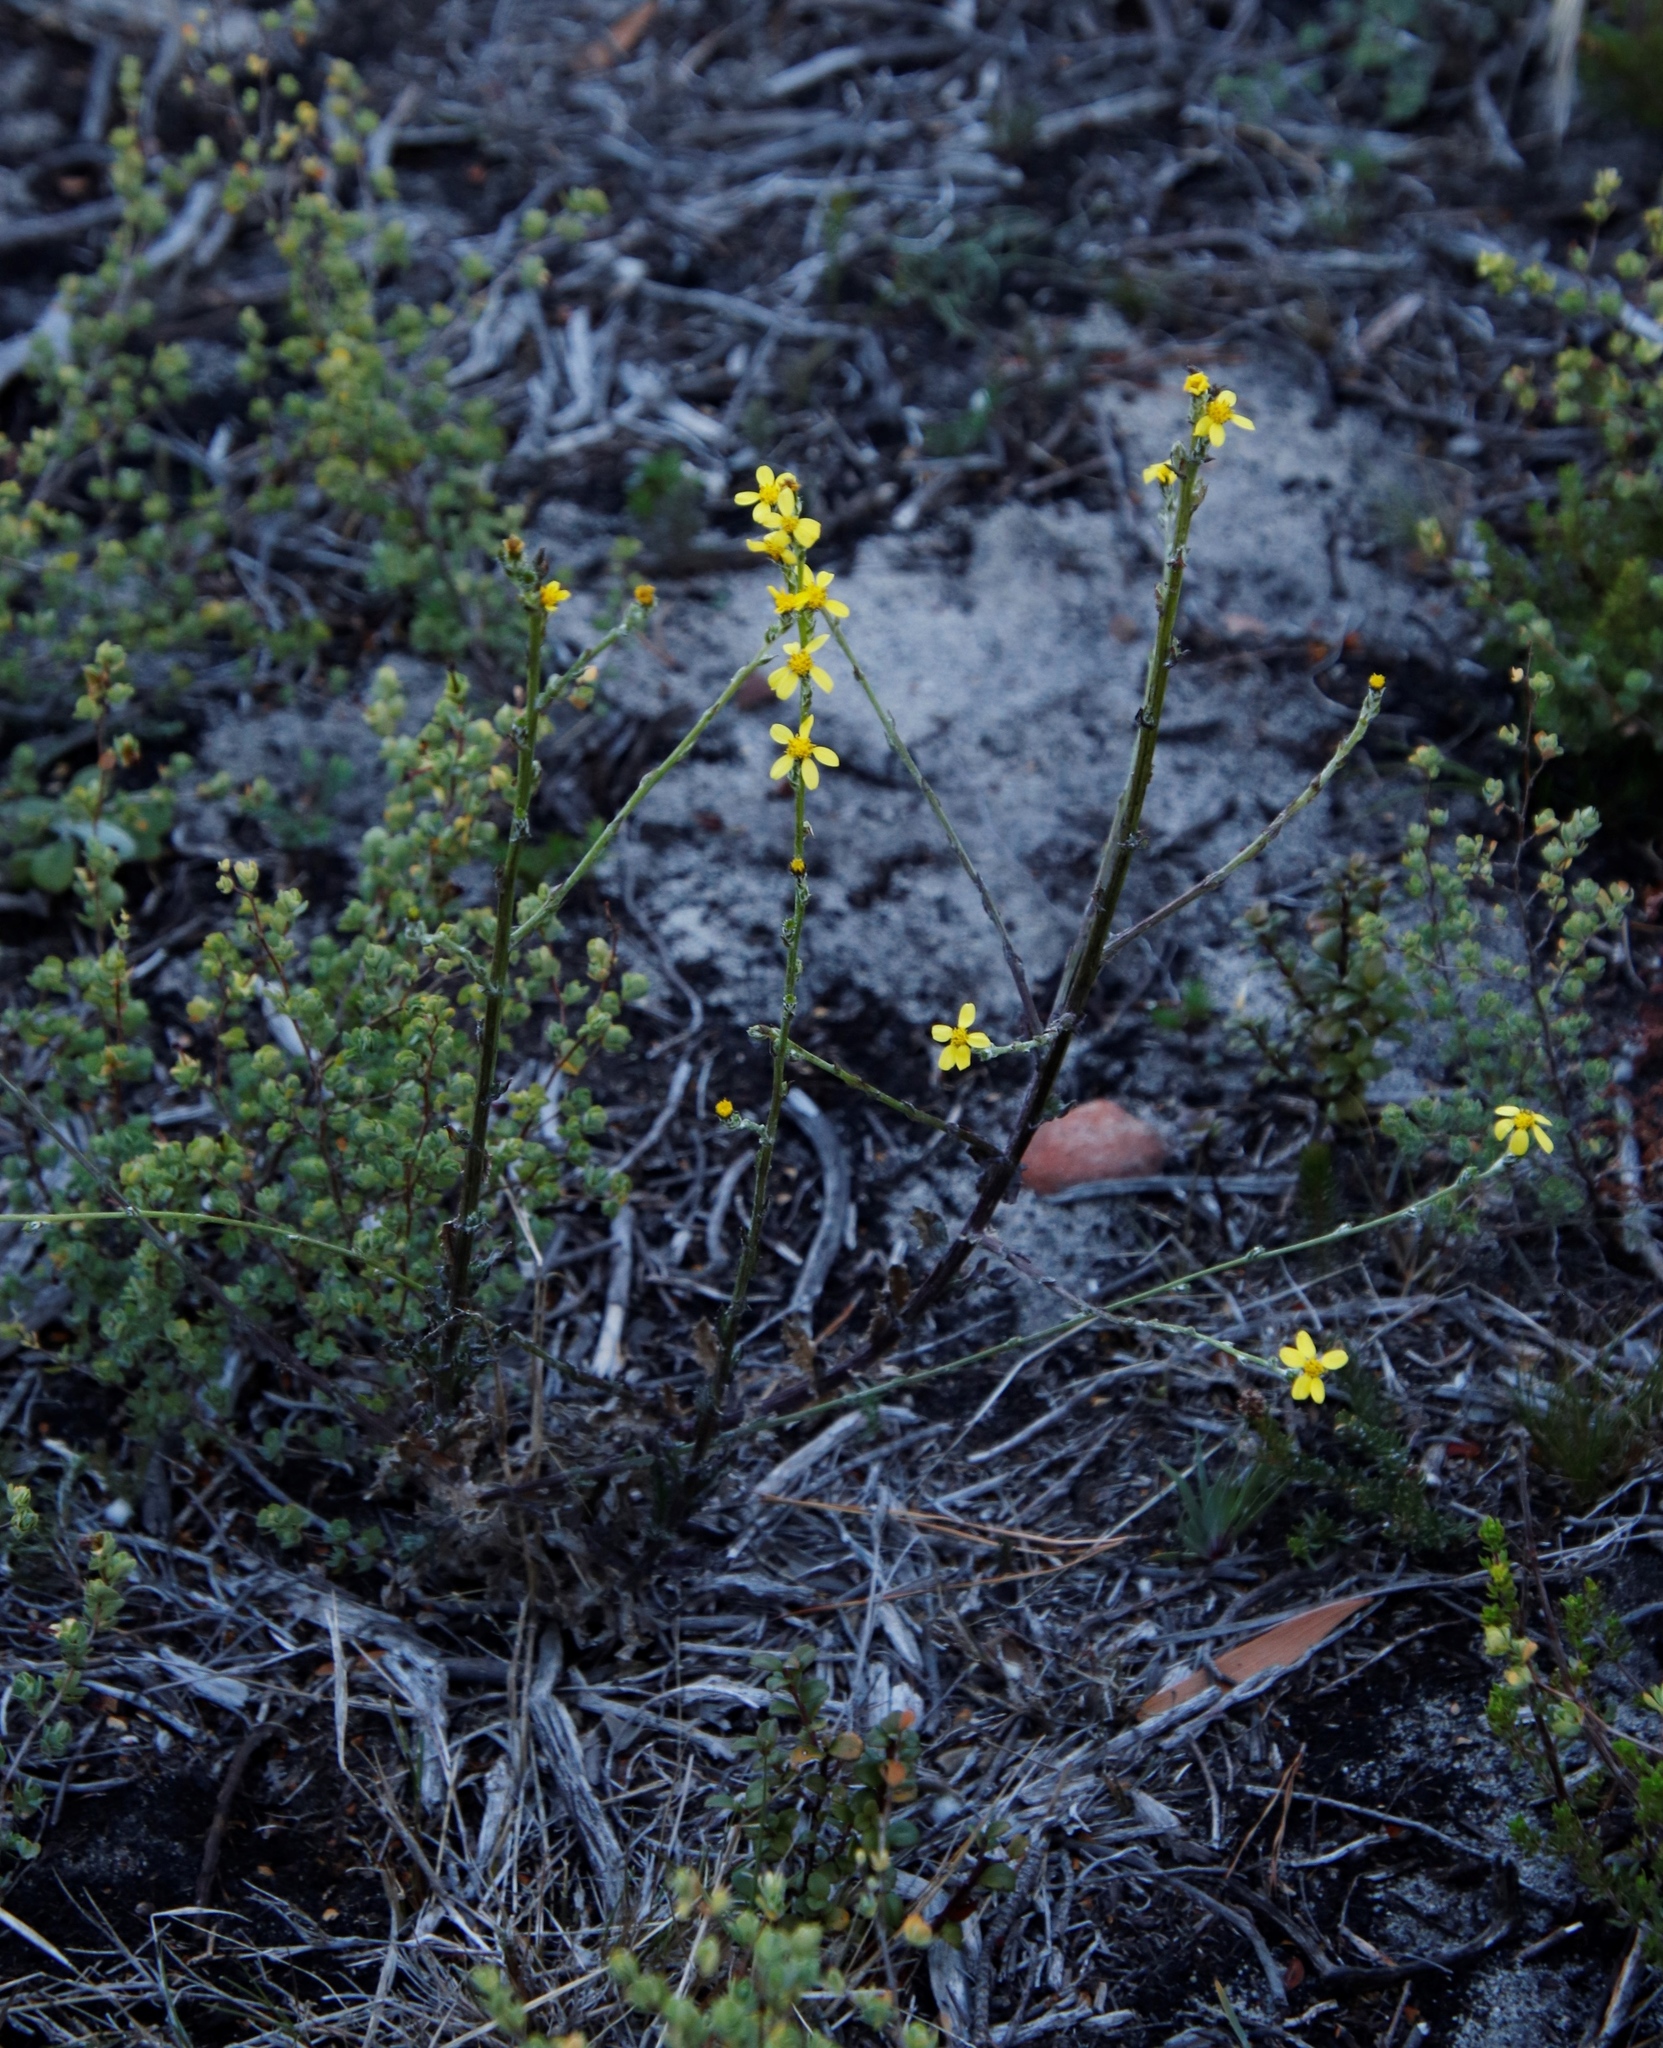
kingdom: Plantae
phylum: Tracheophyta
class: Magnoliopsida
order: Asterales
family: Asteraceae
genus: Senecio
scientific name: Senecio pubigerus
